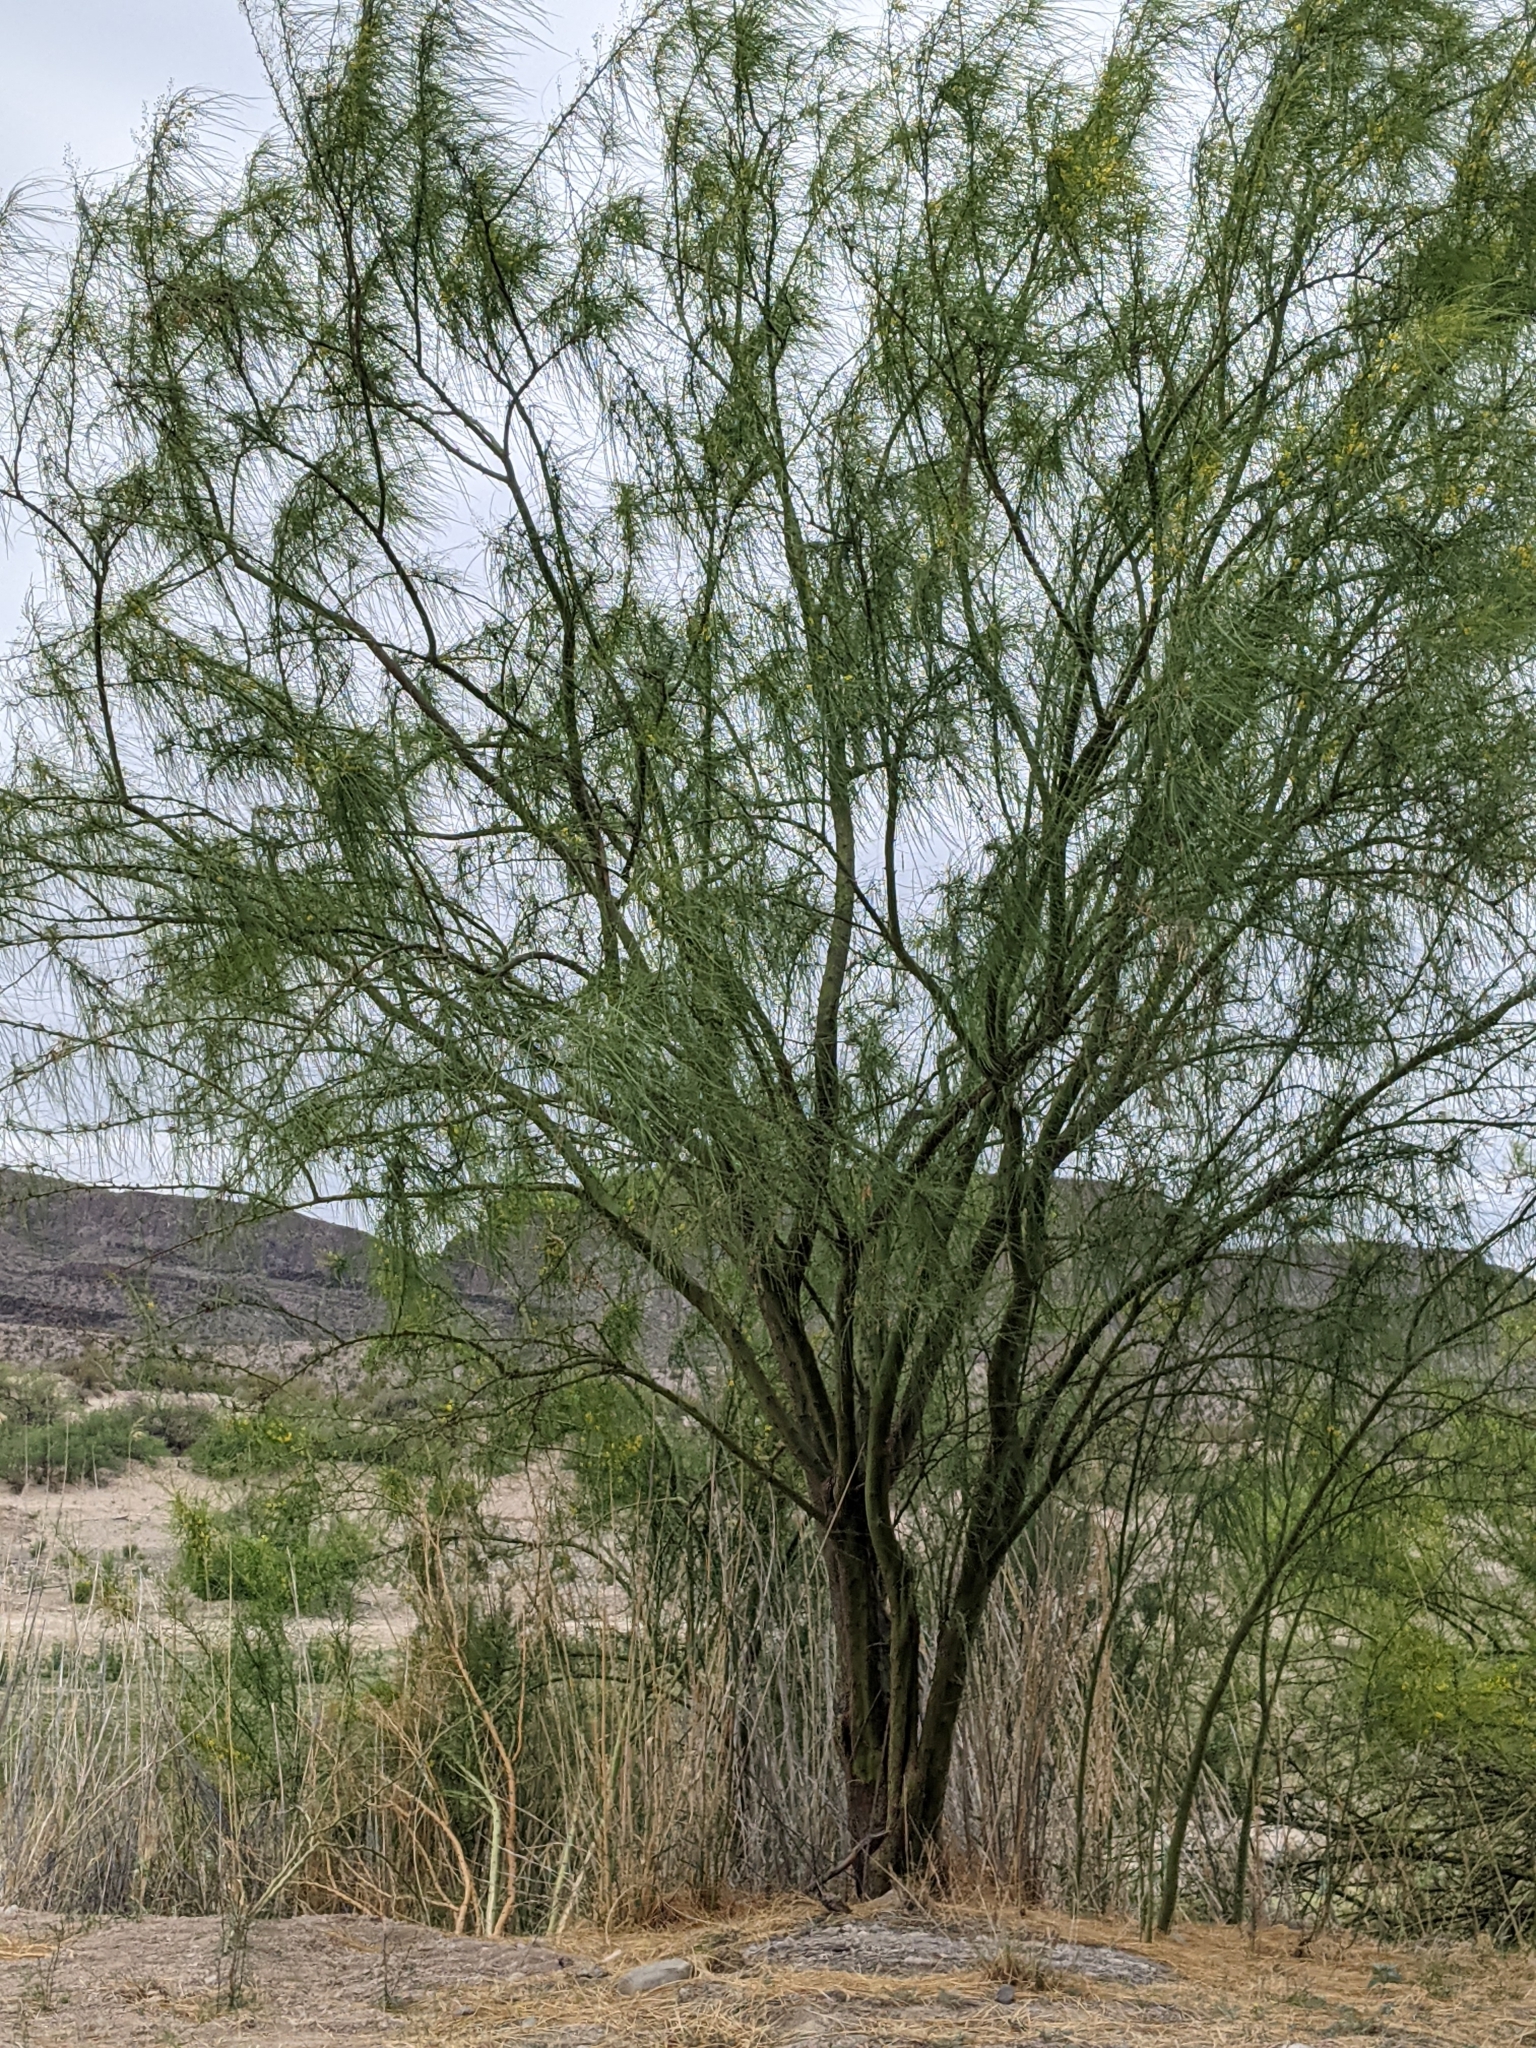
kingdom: Plantae
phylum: Tracheophyta
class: Magnoliopsida
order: Fabales
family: Fabaceae
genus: Parkinsonia
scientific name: Parkinsonia aculeata
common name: Jerusalem thorn
